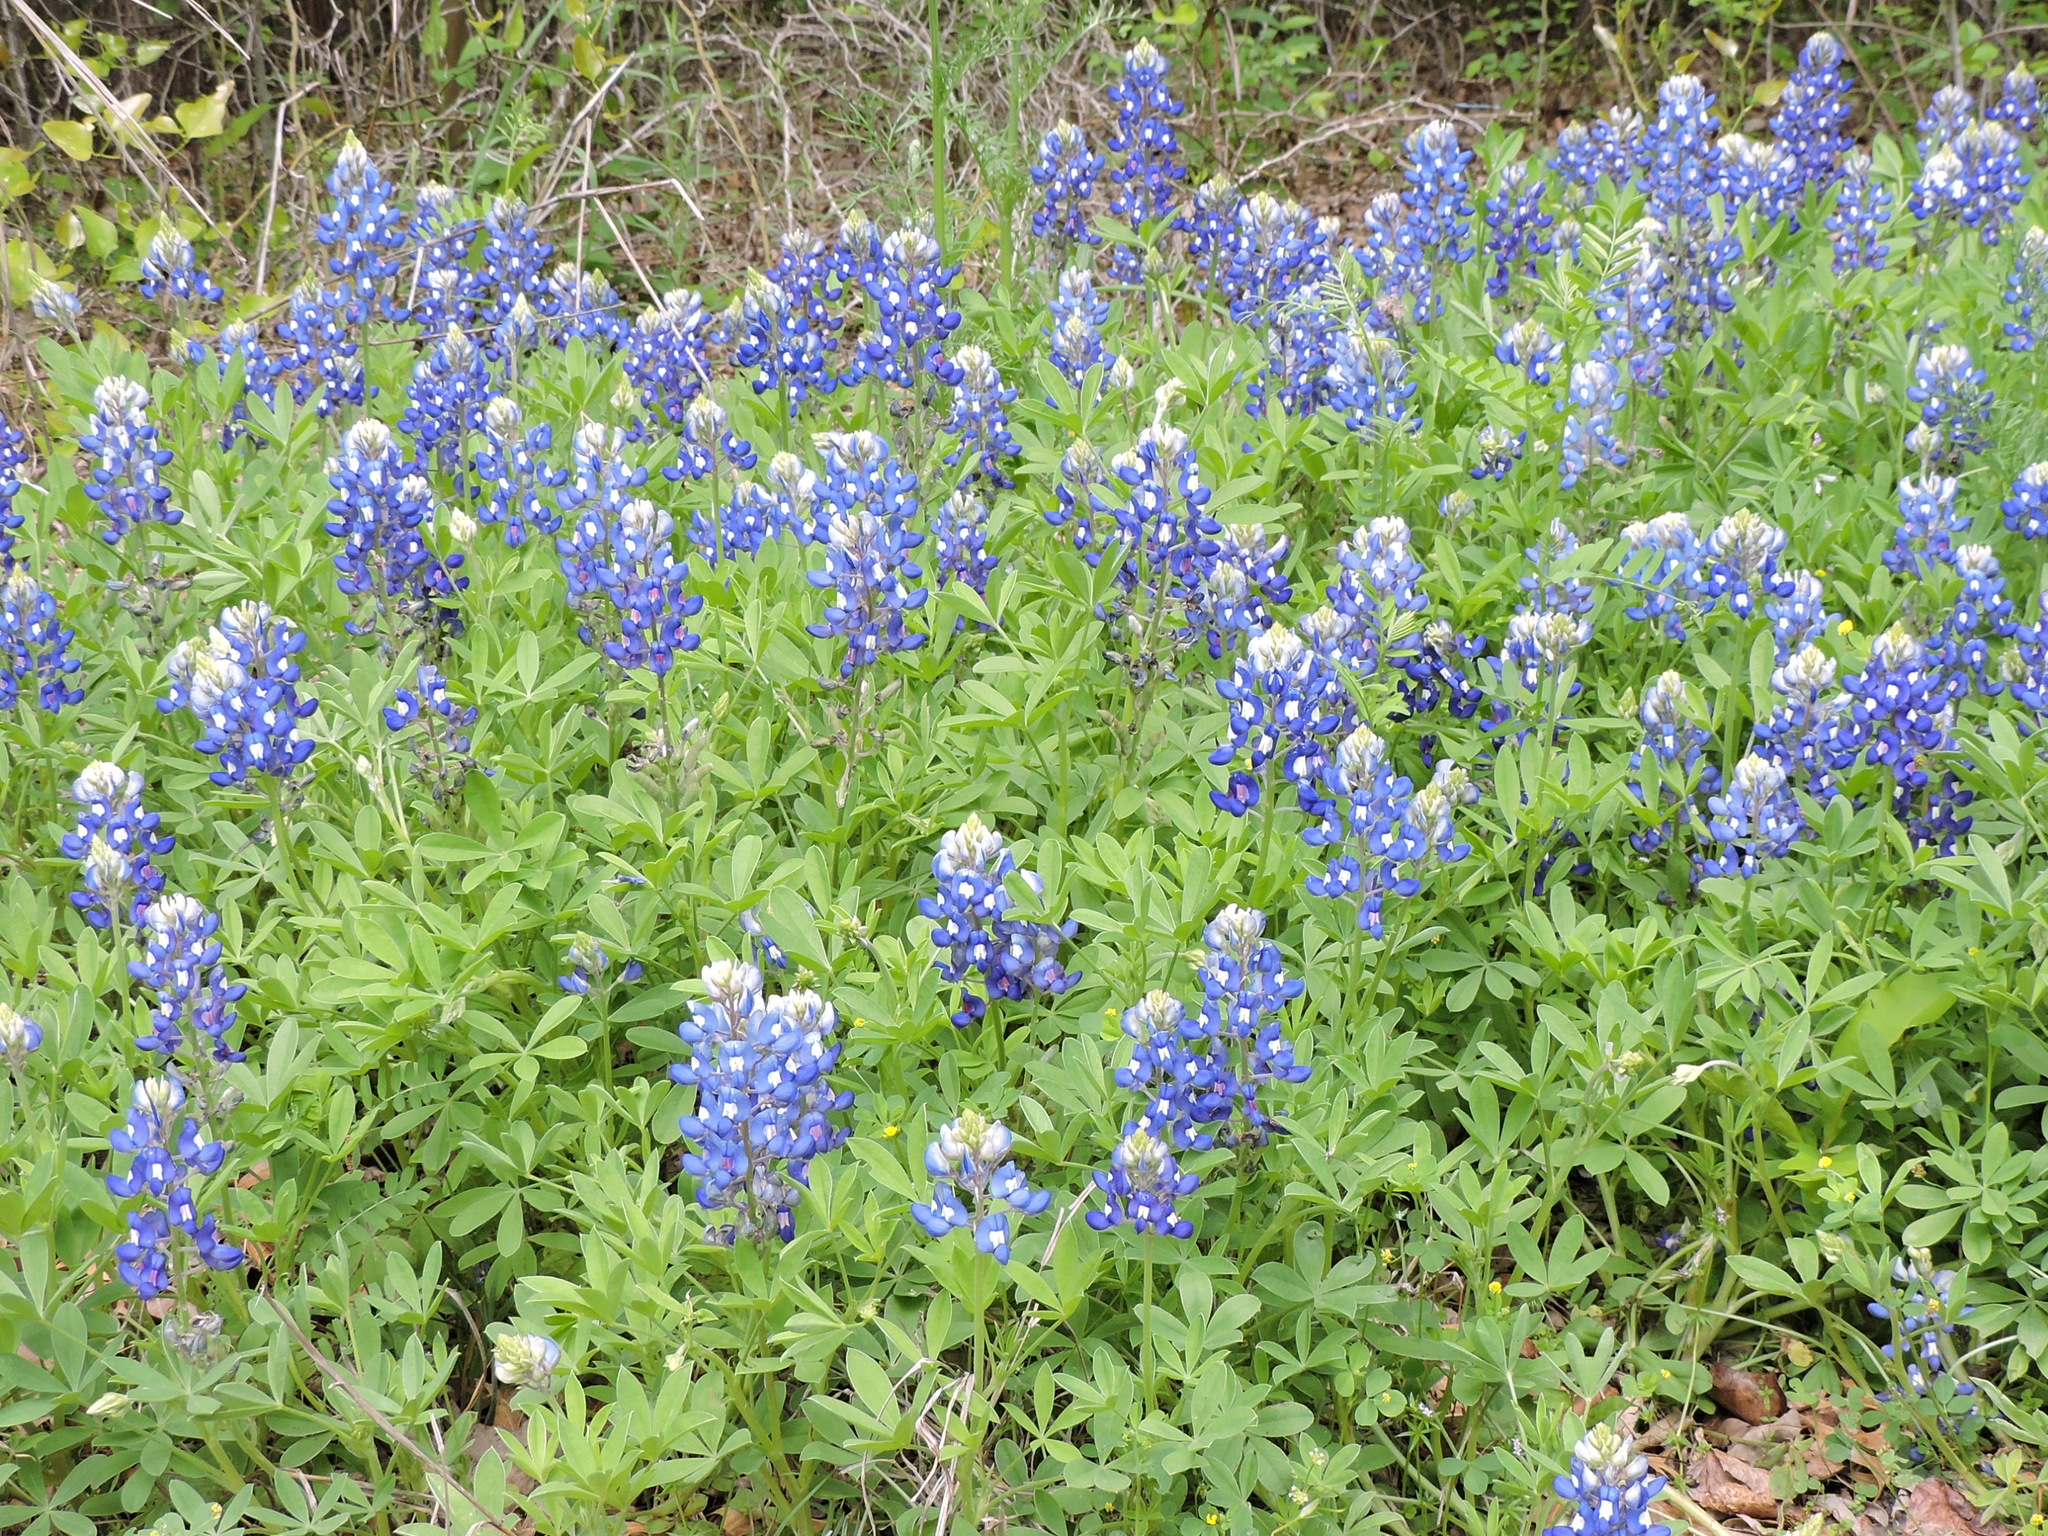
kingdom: Plantae
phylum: Tracheophyta
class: Magnoliopsida
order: Fabales
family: Fabaceae
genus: Lupinus
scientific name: Lupinus texensis
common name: Texas bluebonnet
